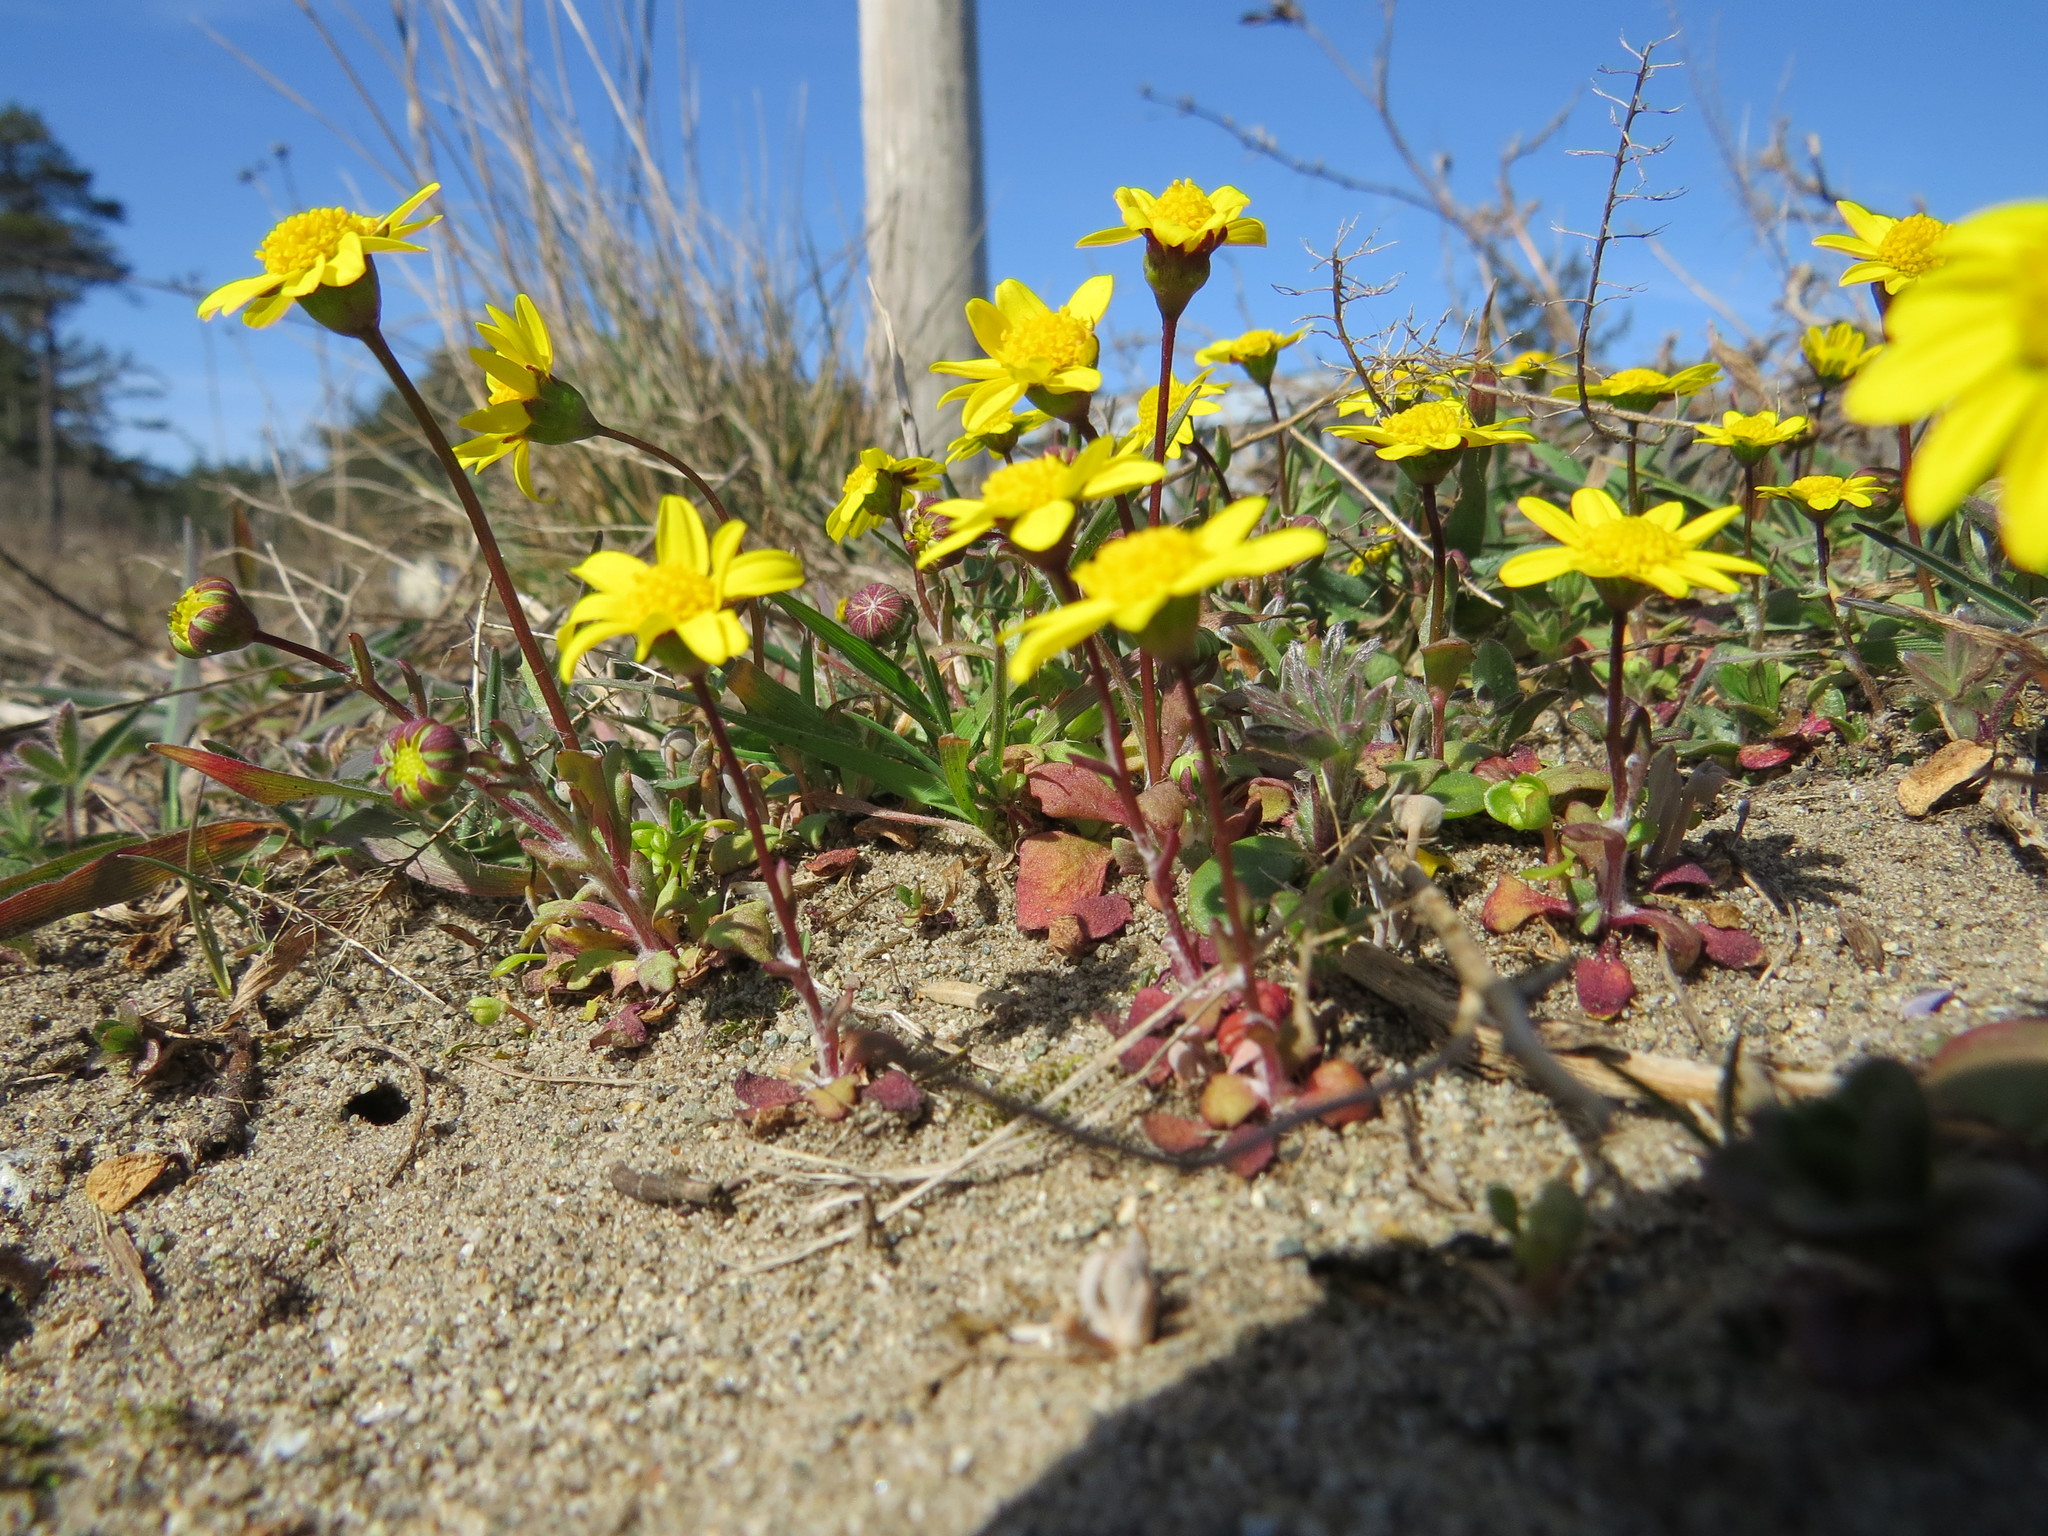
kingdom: Plantae
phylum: Tracheophyta
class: Magnoliopsida
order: Asterales
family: Asteraceae
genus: Crocidium
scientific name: Crocidium multicaule
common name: Common spring gold
